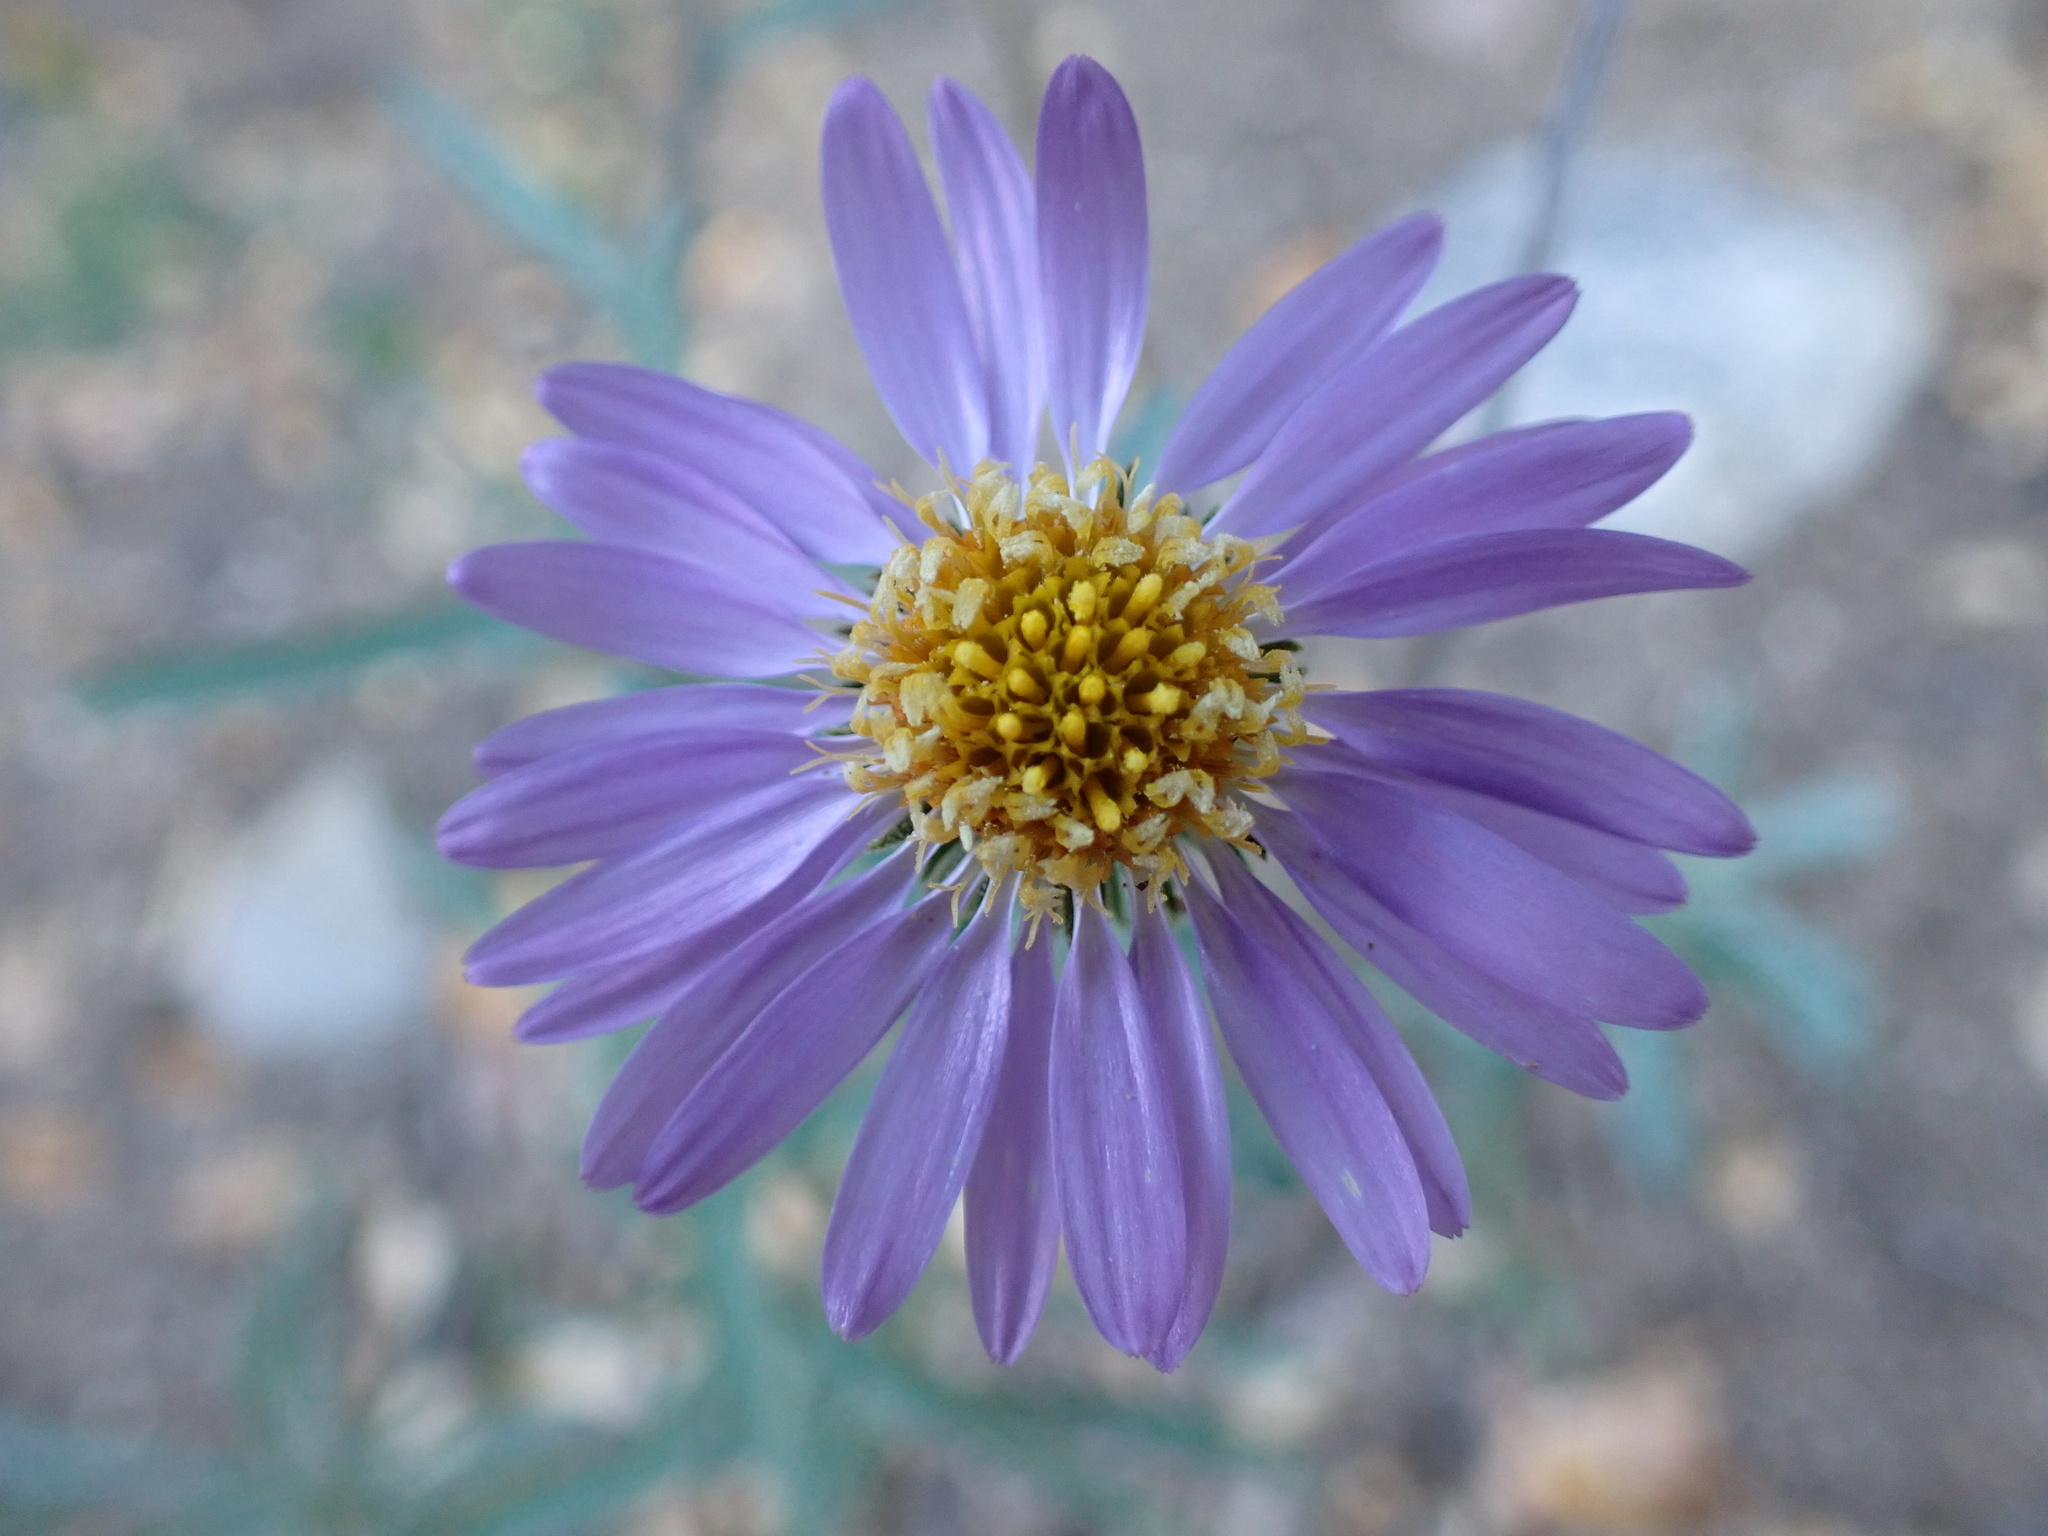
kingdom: Plantae
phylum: Tracheophyta
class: Magnoliopsida
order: Asterales
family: Asteraceae
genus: Dieteria
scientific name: Dieteria canescens
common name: Hoary-aster
